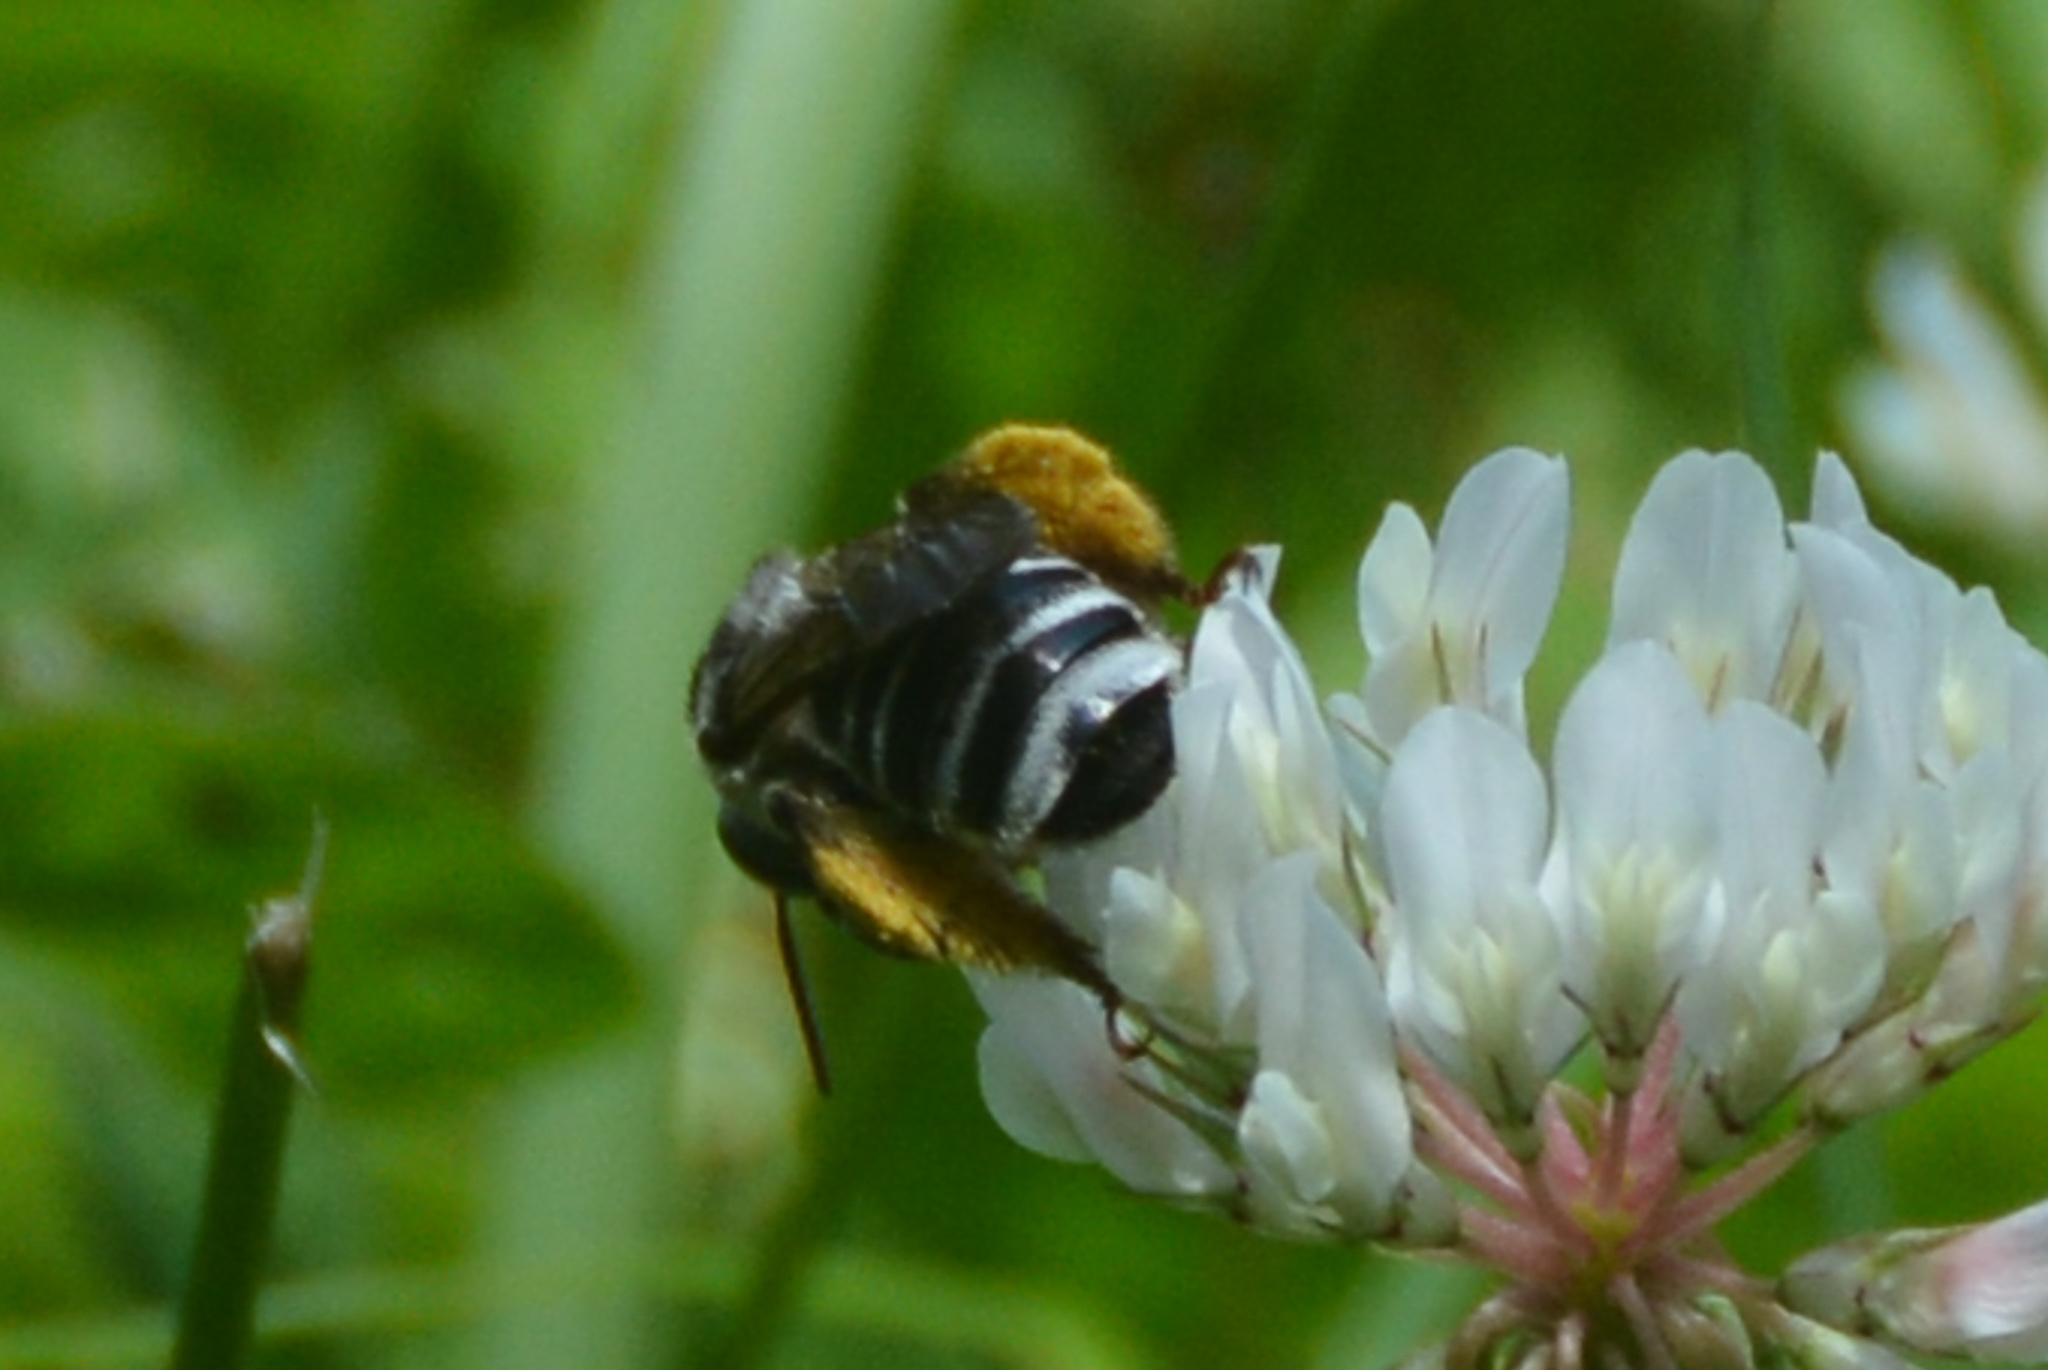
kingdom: Animalia
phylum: Arthropoda
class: Insecta
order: Hymenoptera
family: Apidae
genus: Melissodes
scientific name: Melissodes communis
